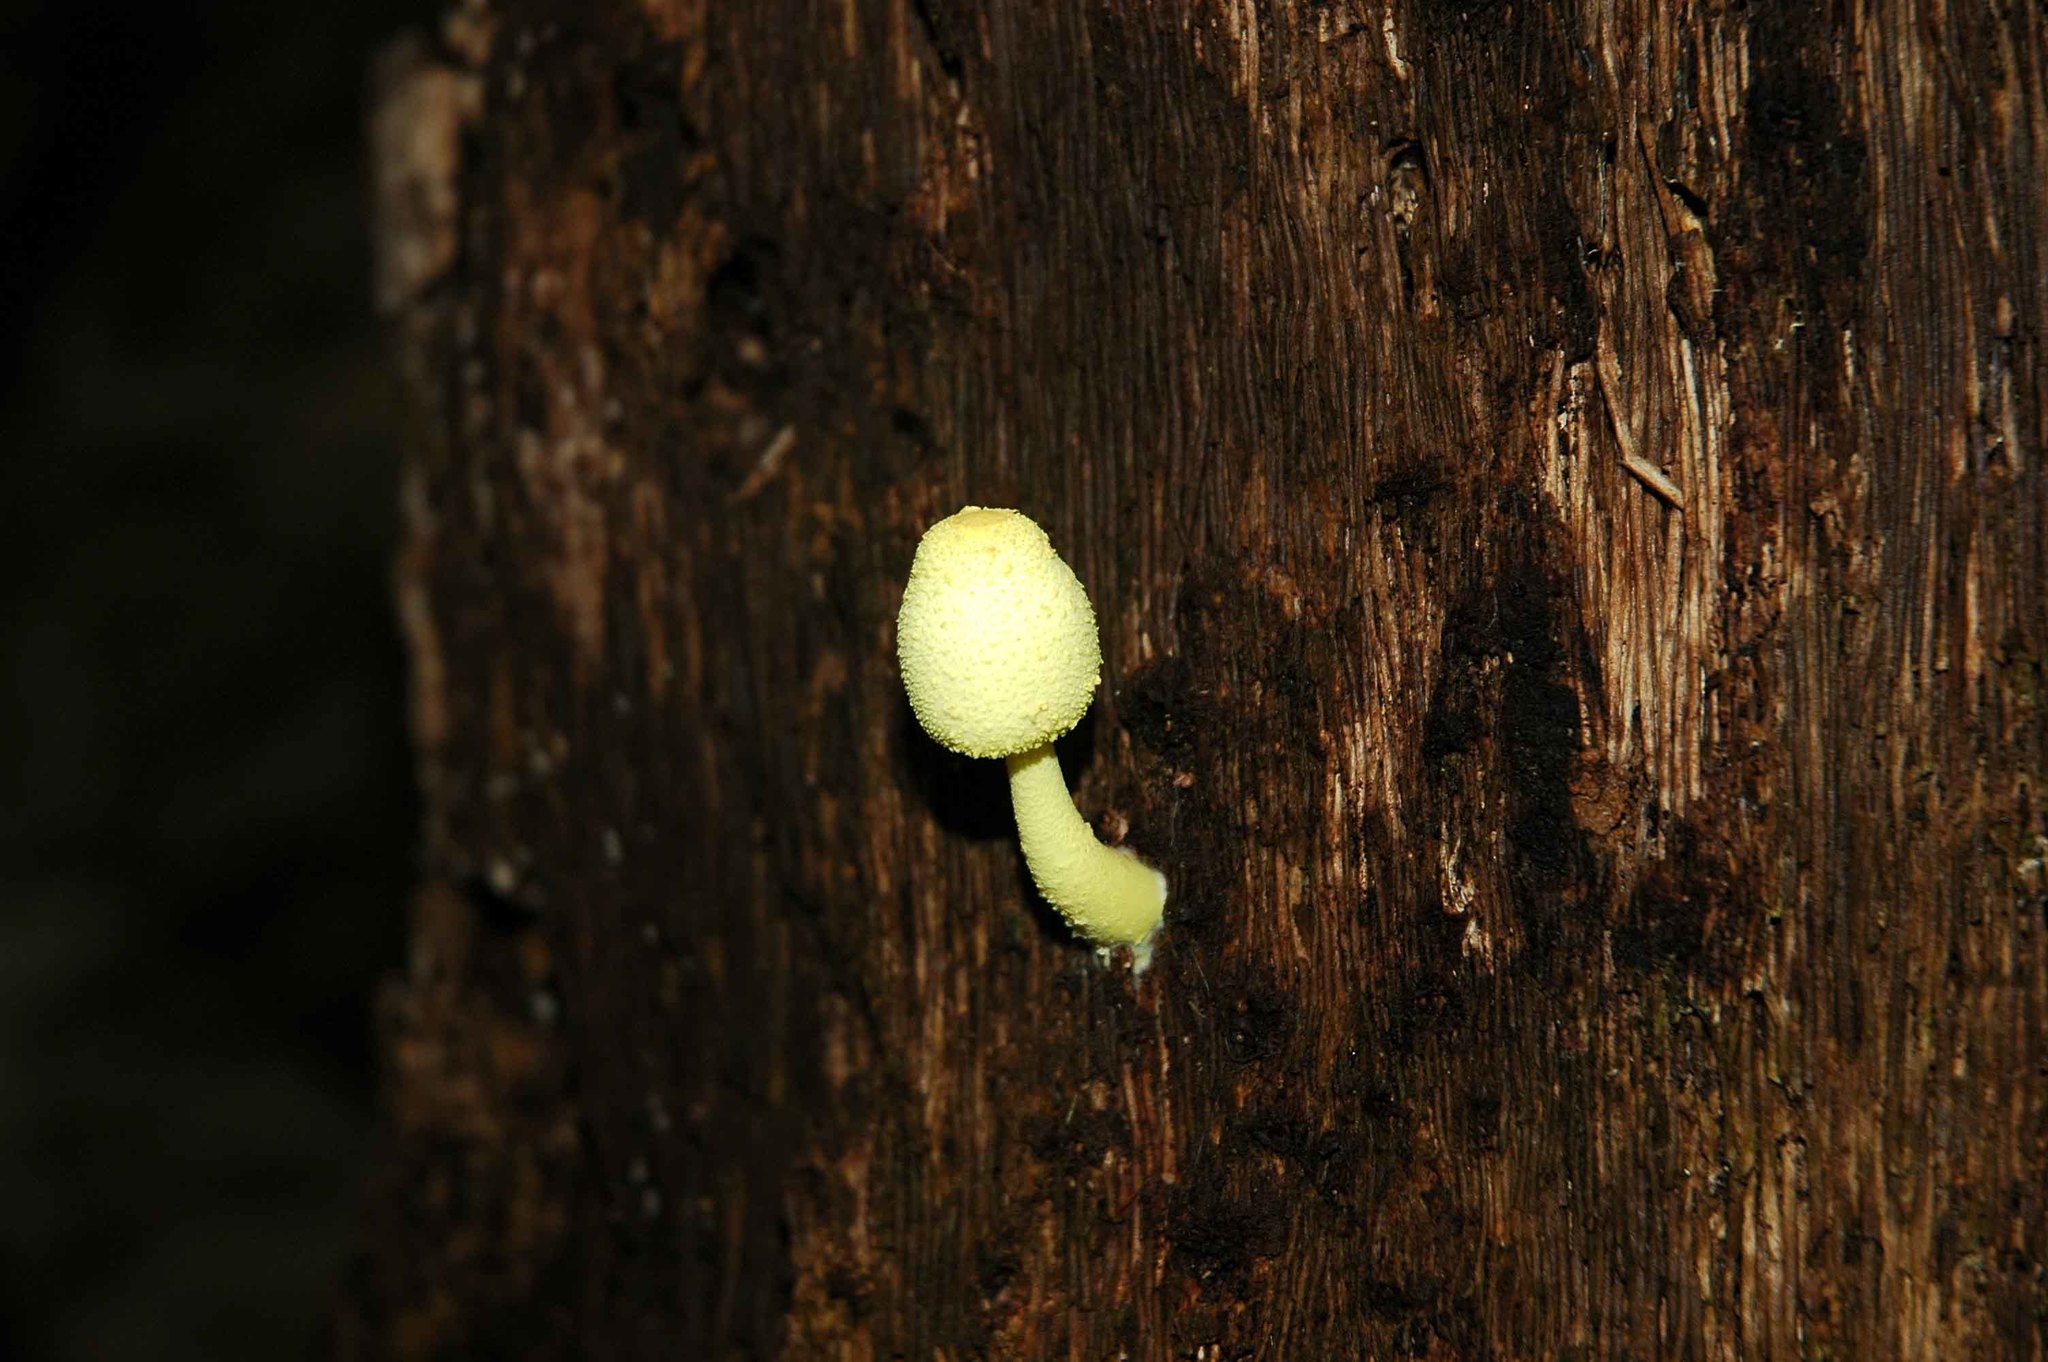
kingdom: Fungi
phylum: Basidiomycota
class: Agaricomycetes
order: Agaricales
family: Agaricaceae
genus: Leucocoprinus
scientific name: Leucocoprinus birnbaumii
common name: Plantpot dapperling
